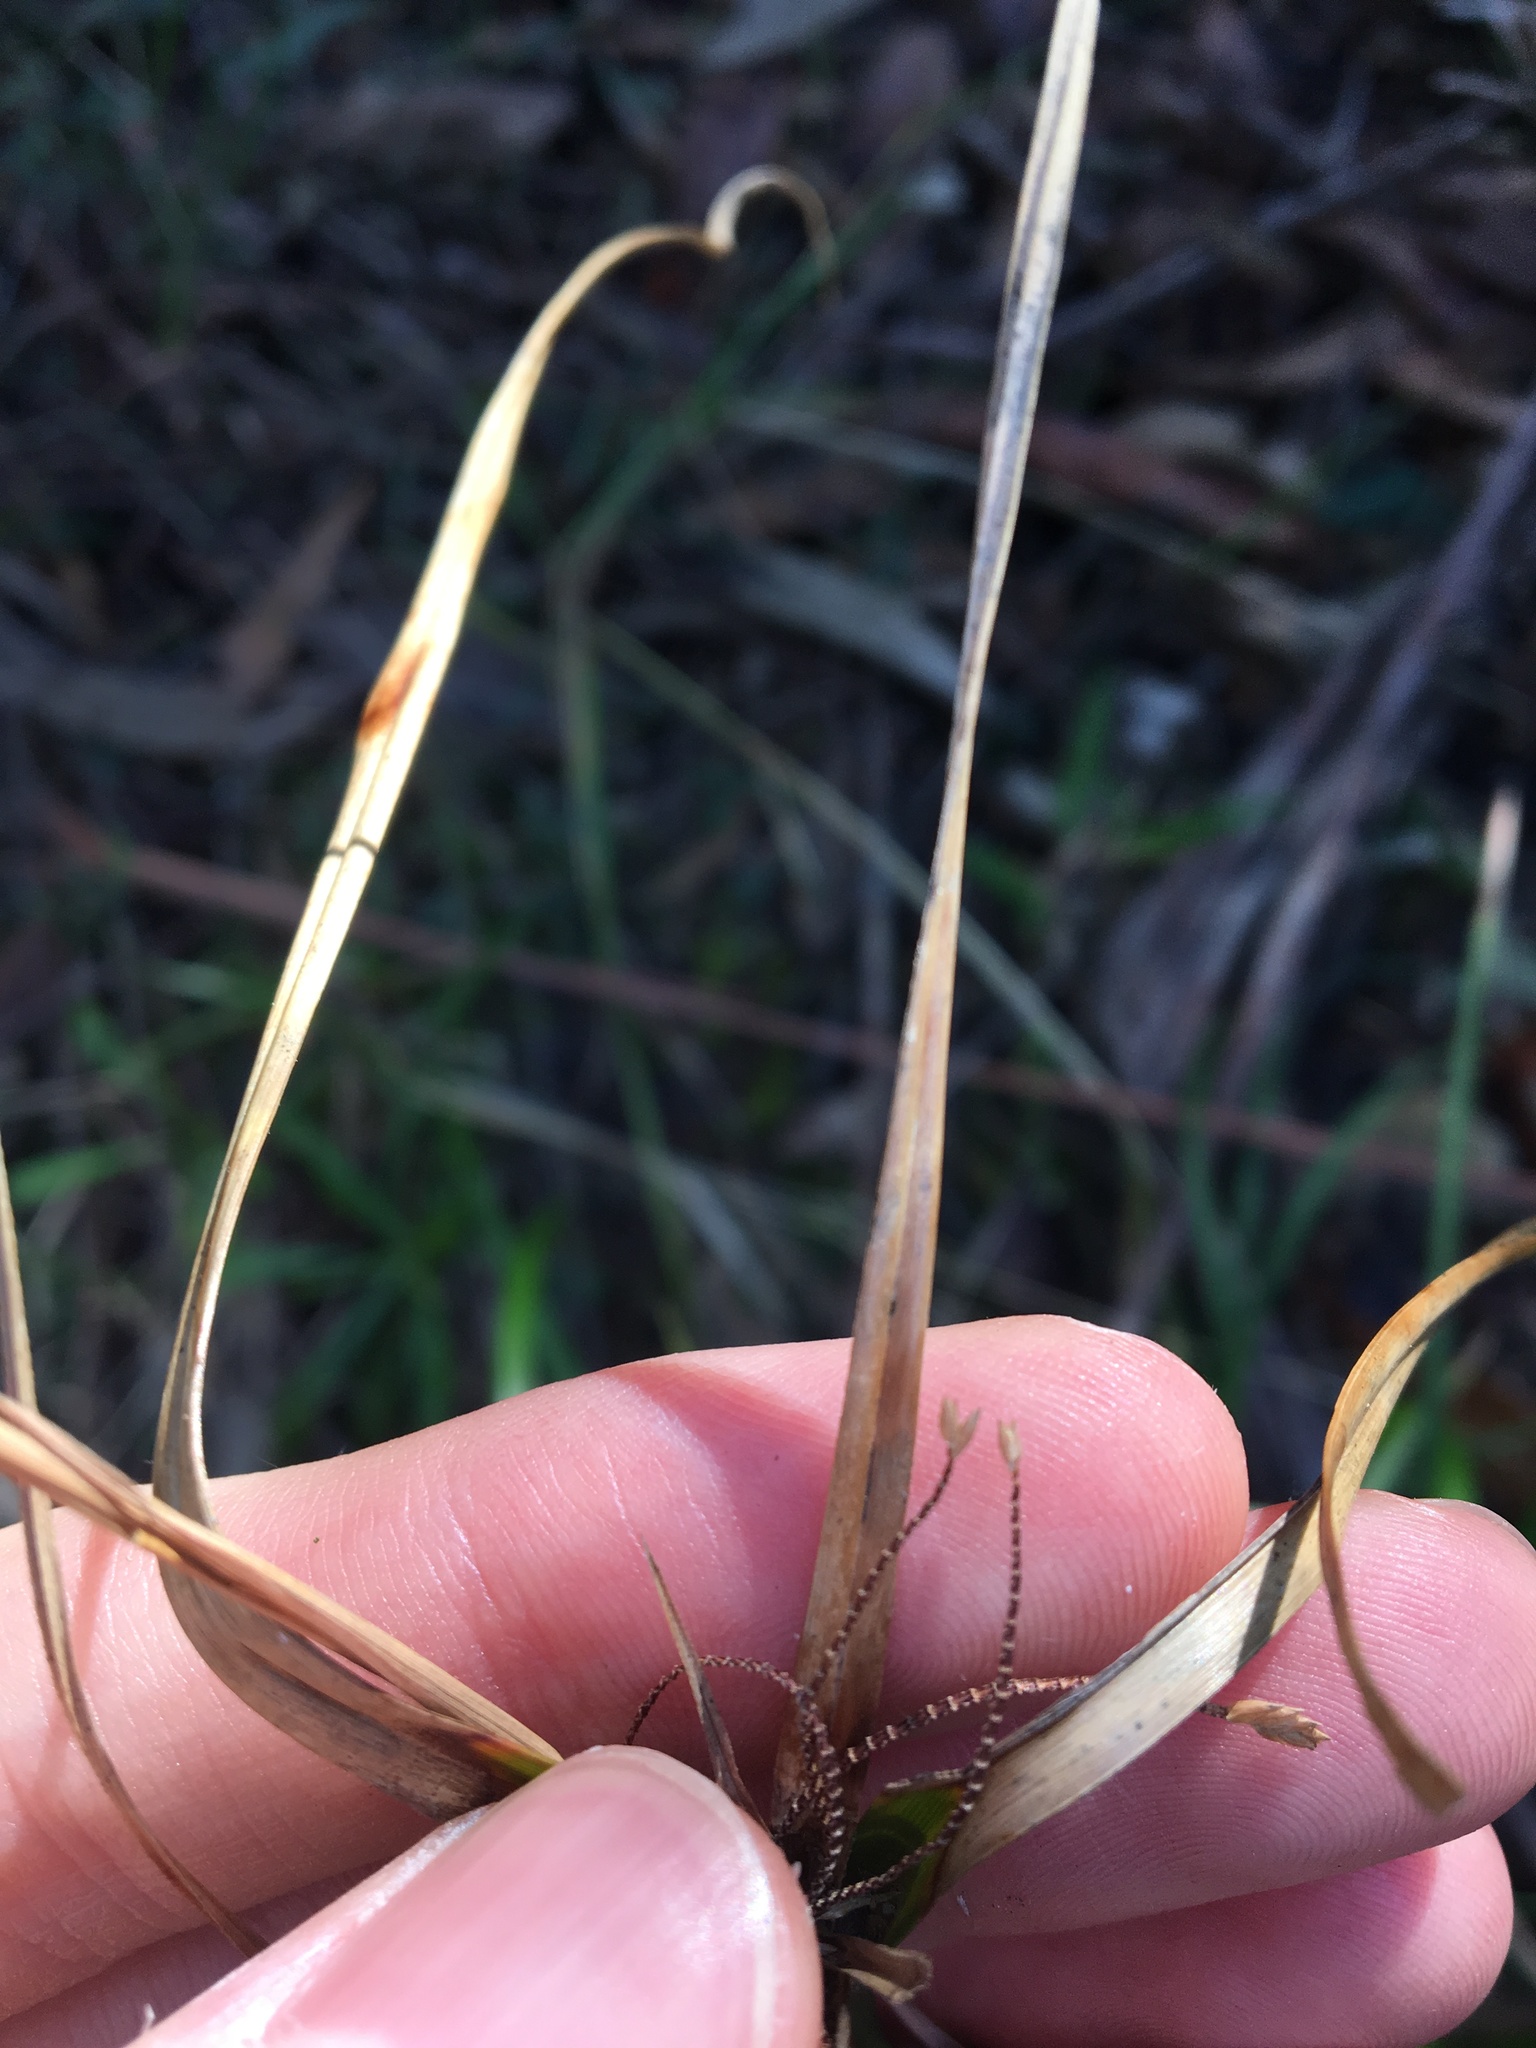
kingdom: Plantae
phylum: Tracheophyta
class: Liliopsida
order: Poales
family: Cyperaceae
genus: Cyperus
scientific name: Cyperus eragrostis
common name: Tall flatsedge
